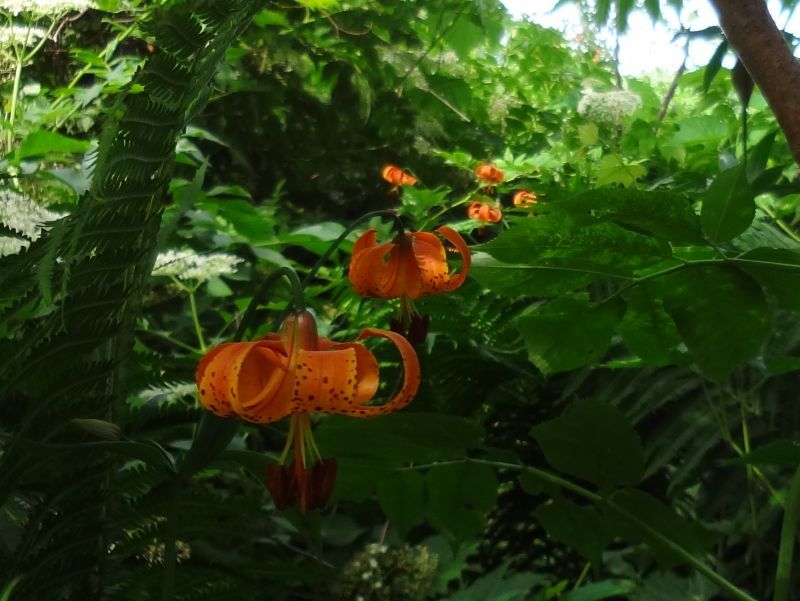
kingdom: Plantae
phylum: Tracheophyta
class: Liliopsida
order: Liliales
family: Liliaceae
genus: Lilium
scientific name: Lilium michiganense
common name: Michigan lily
